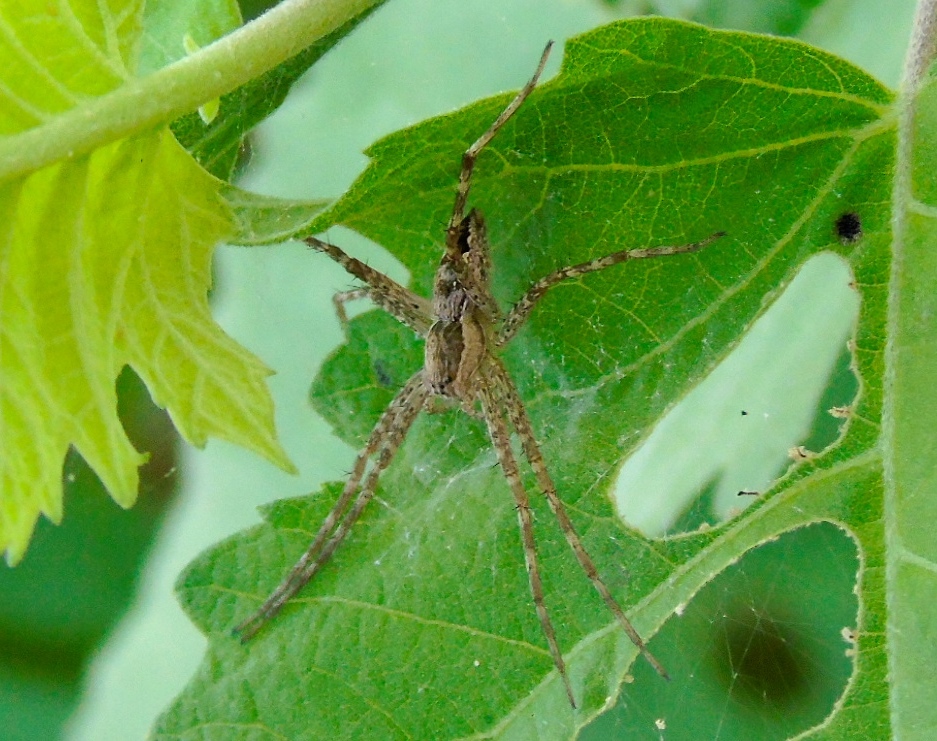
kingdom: Animalia
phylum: Arthropoda
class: Arachnida
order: Araneae
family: Pisauridae
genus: Tinus
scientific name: Tinus
